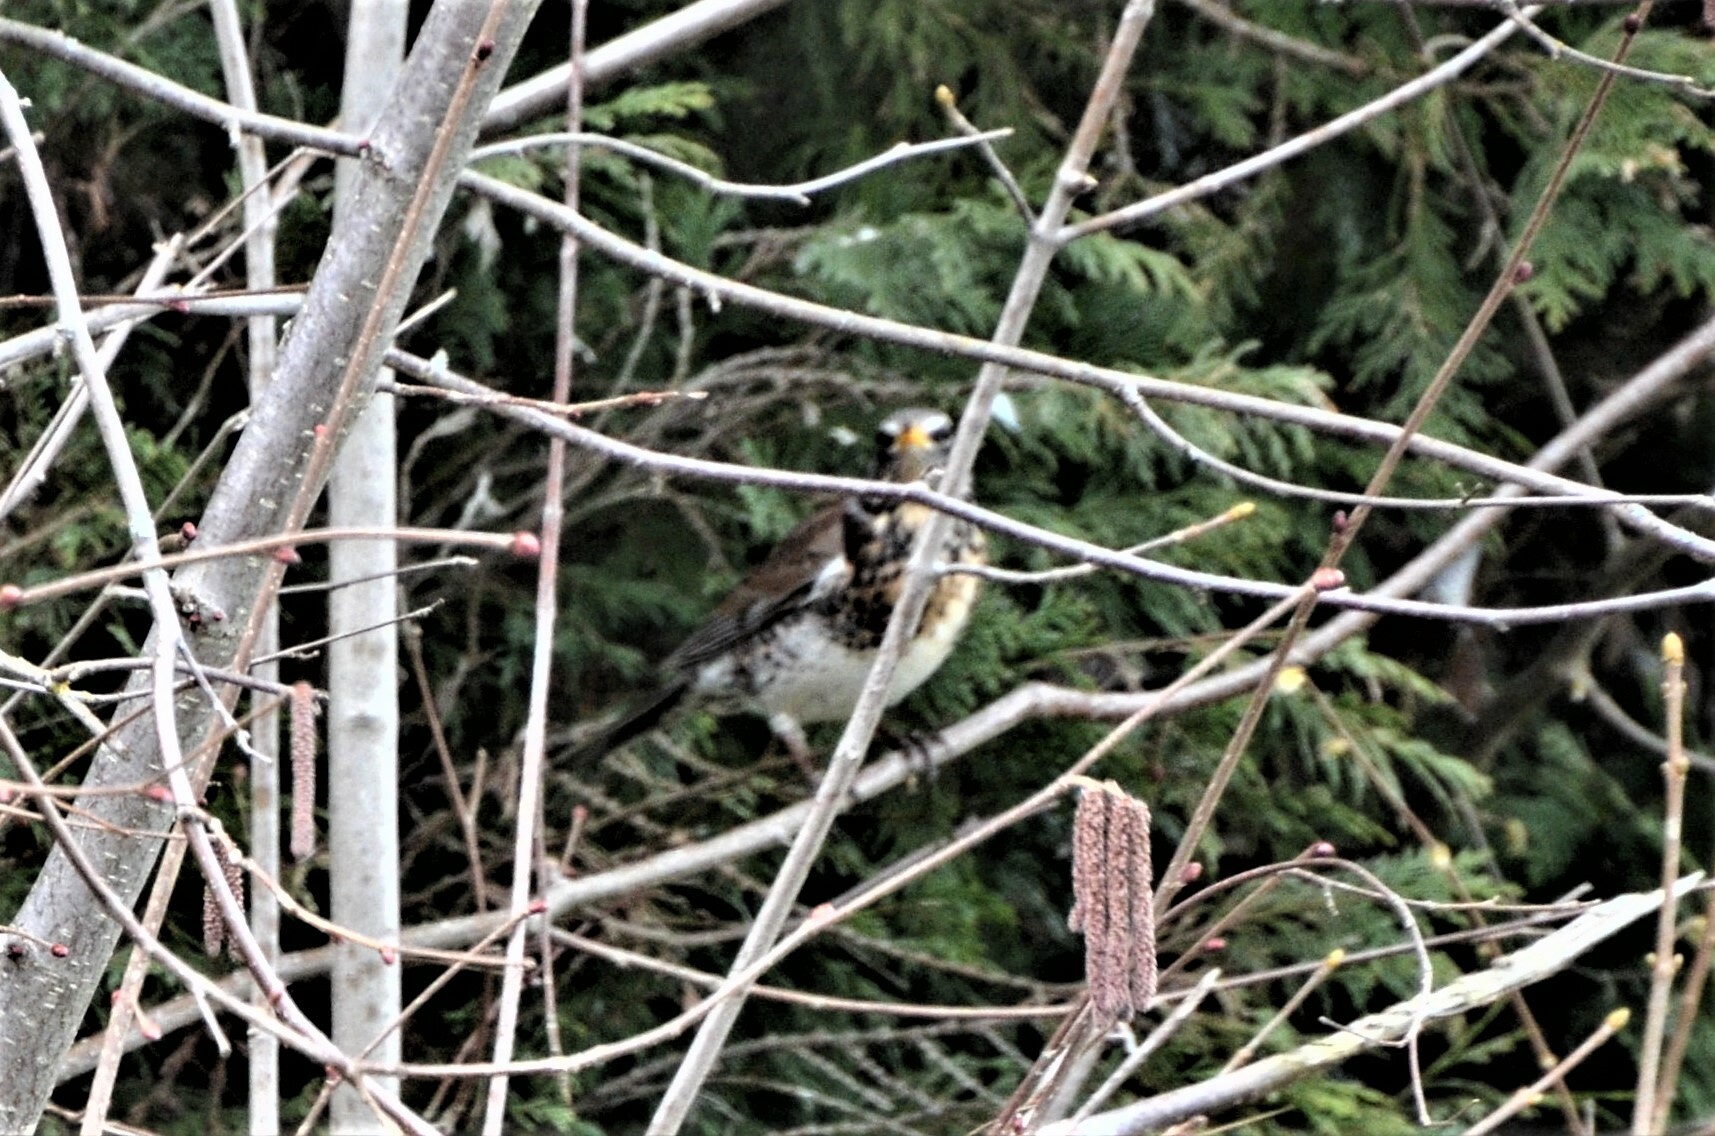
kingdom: Animalia
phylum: Chordata
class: Aves
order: Passeriformes
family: Turdidae
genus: Turdus
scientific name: Turdus pilaris
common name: Fieldfare
